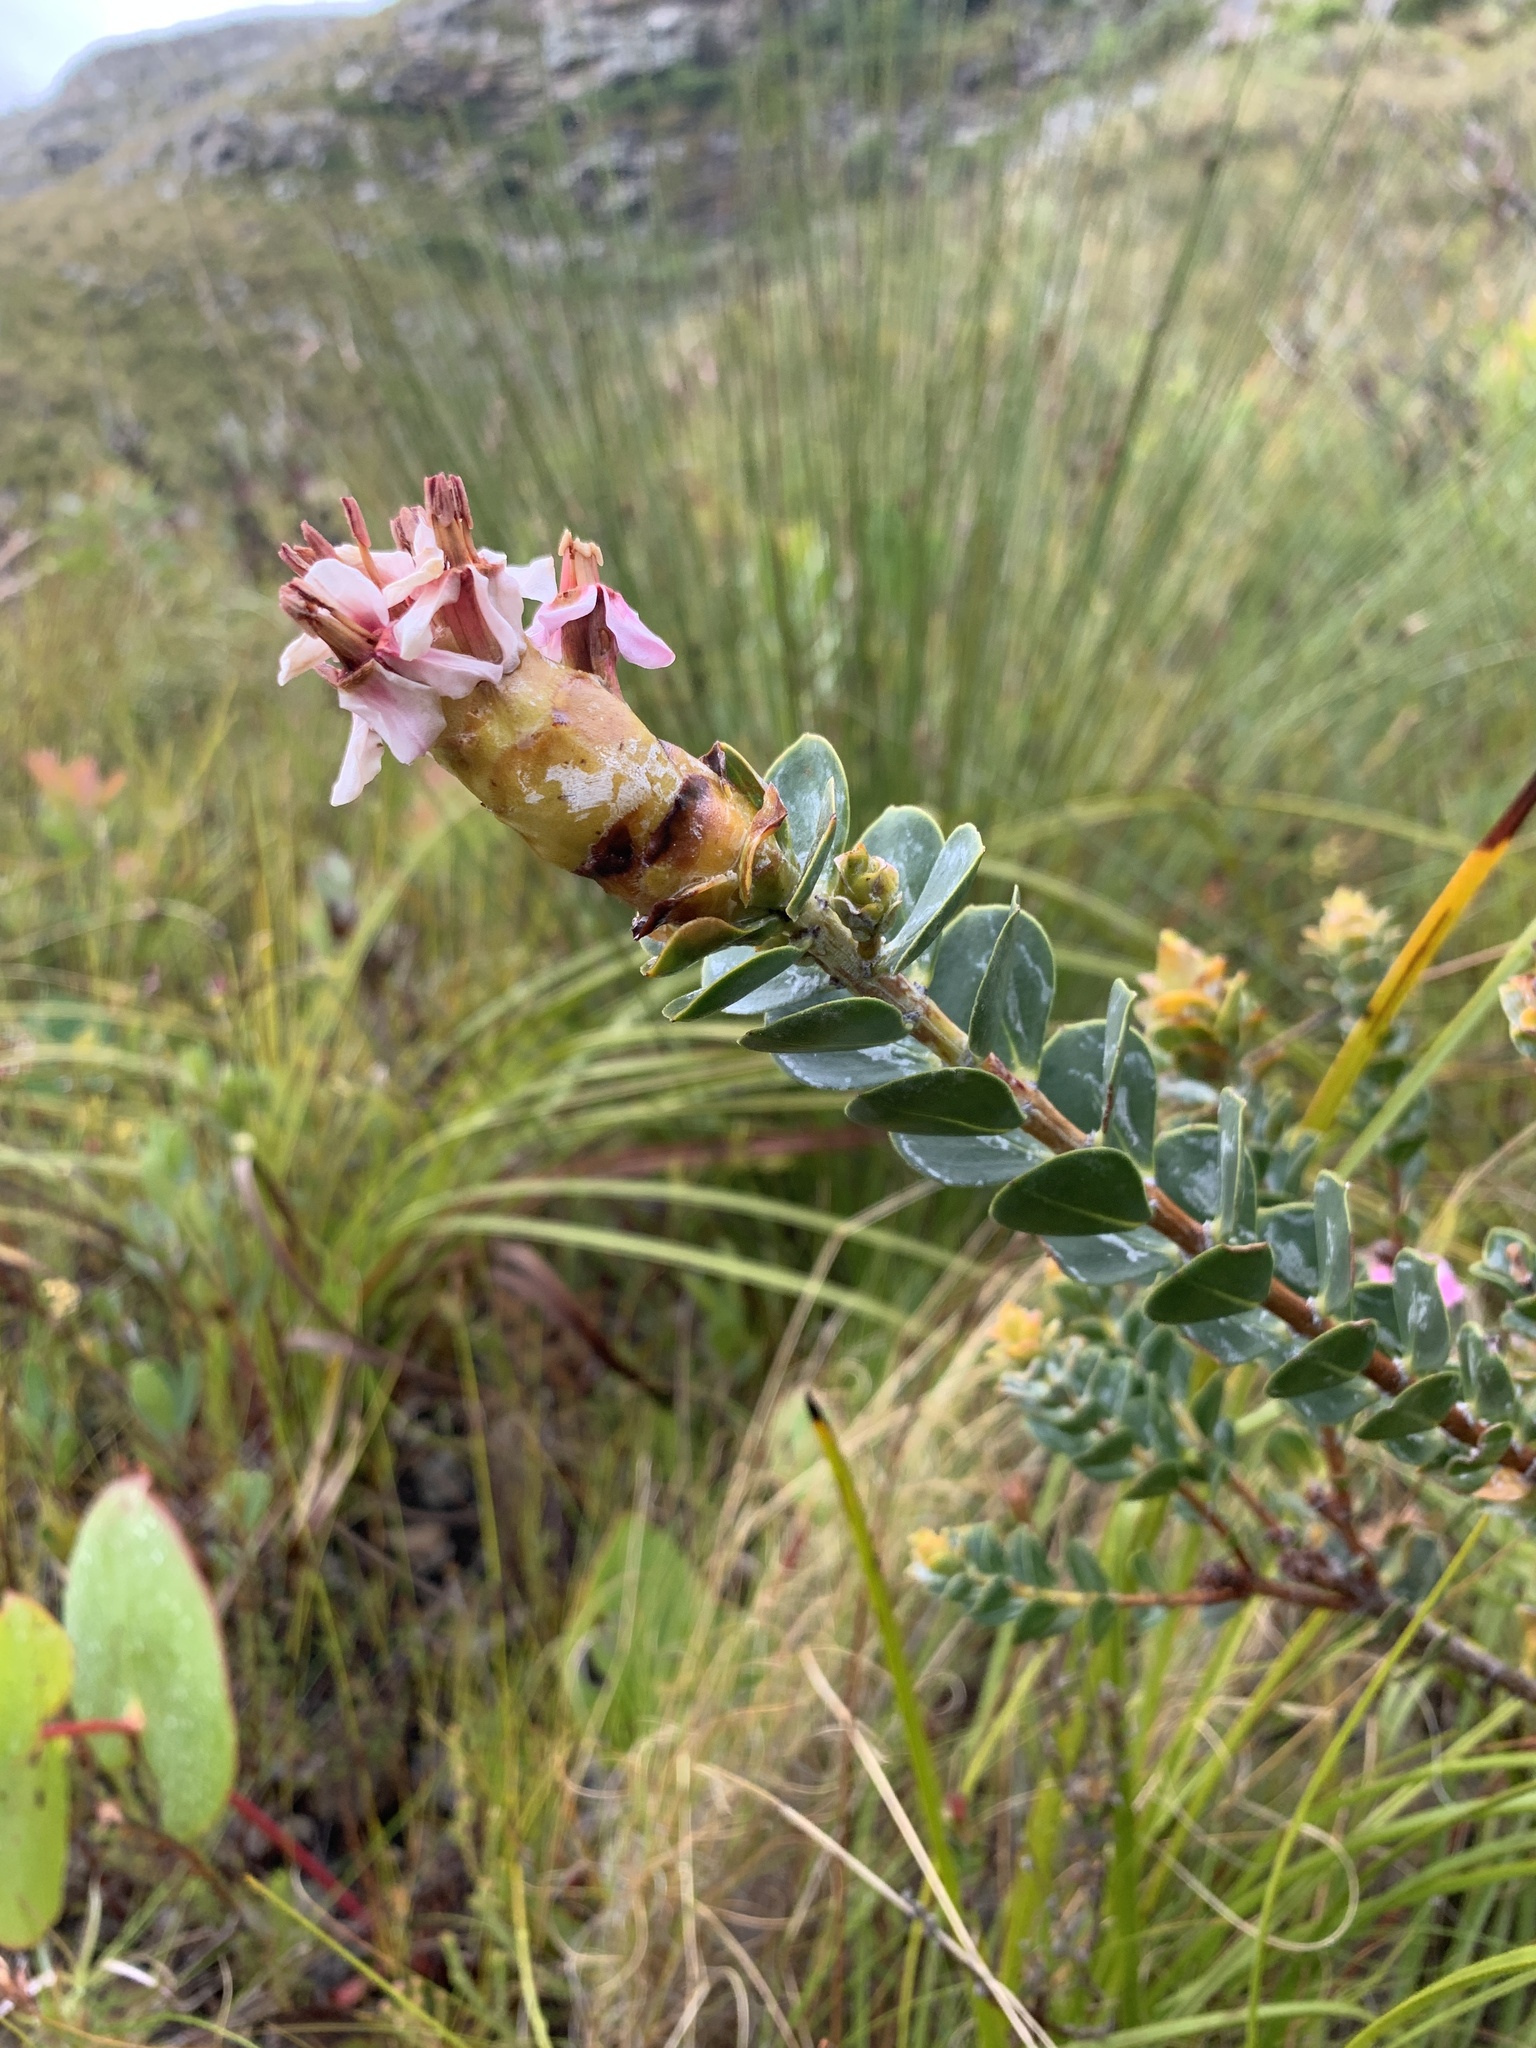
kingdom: Plantae
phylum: Tracheophyta
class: Magnoliopsida
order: Myrtales
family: Penaeaceae
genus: Saltera
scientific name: Saltera sarcocolla
